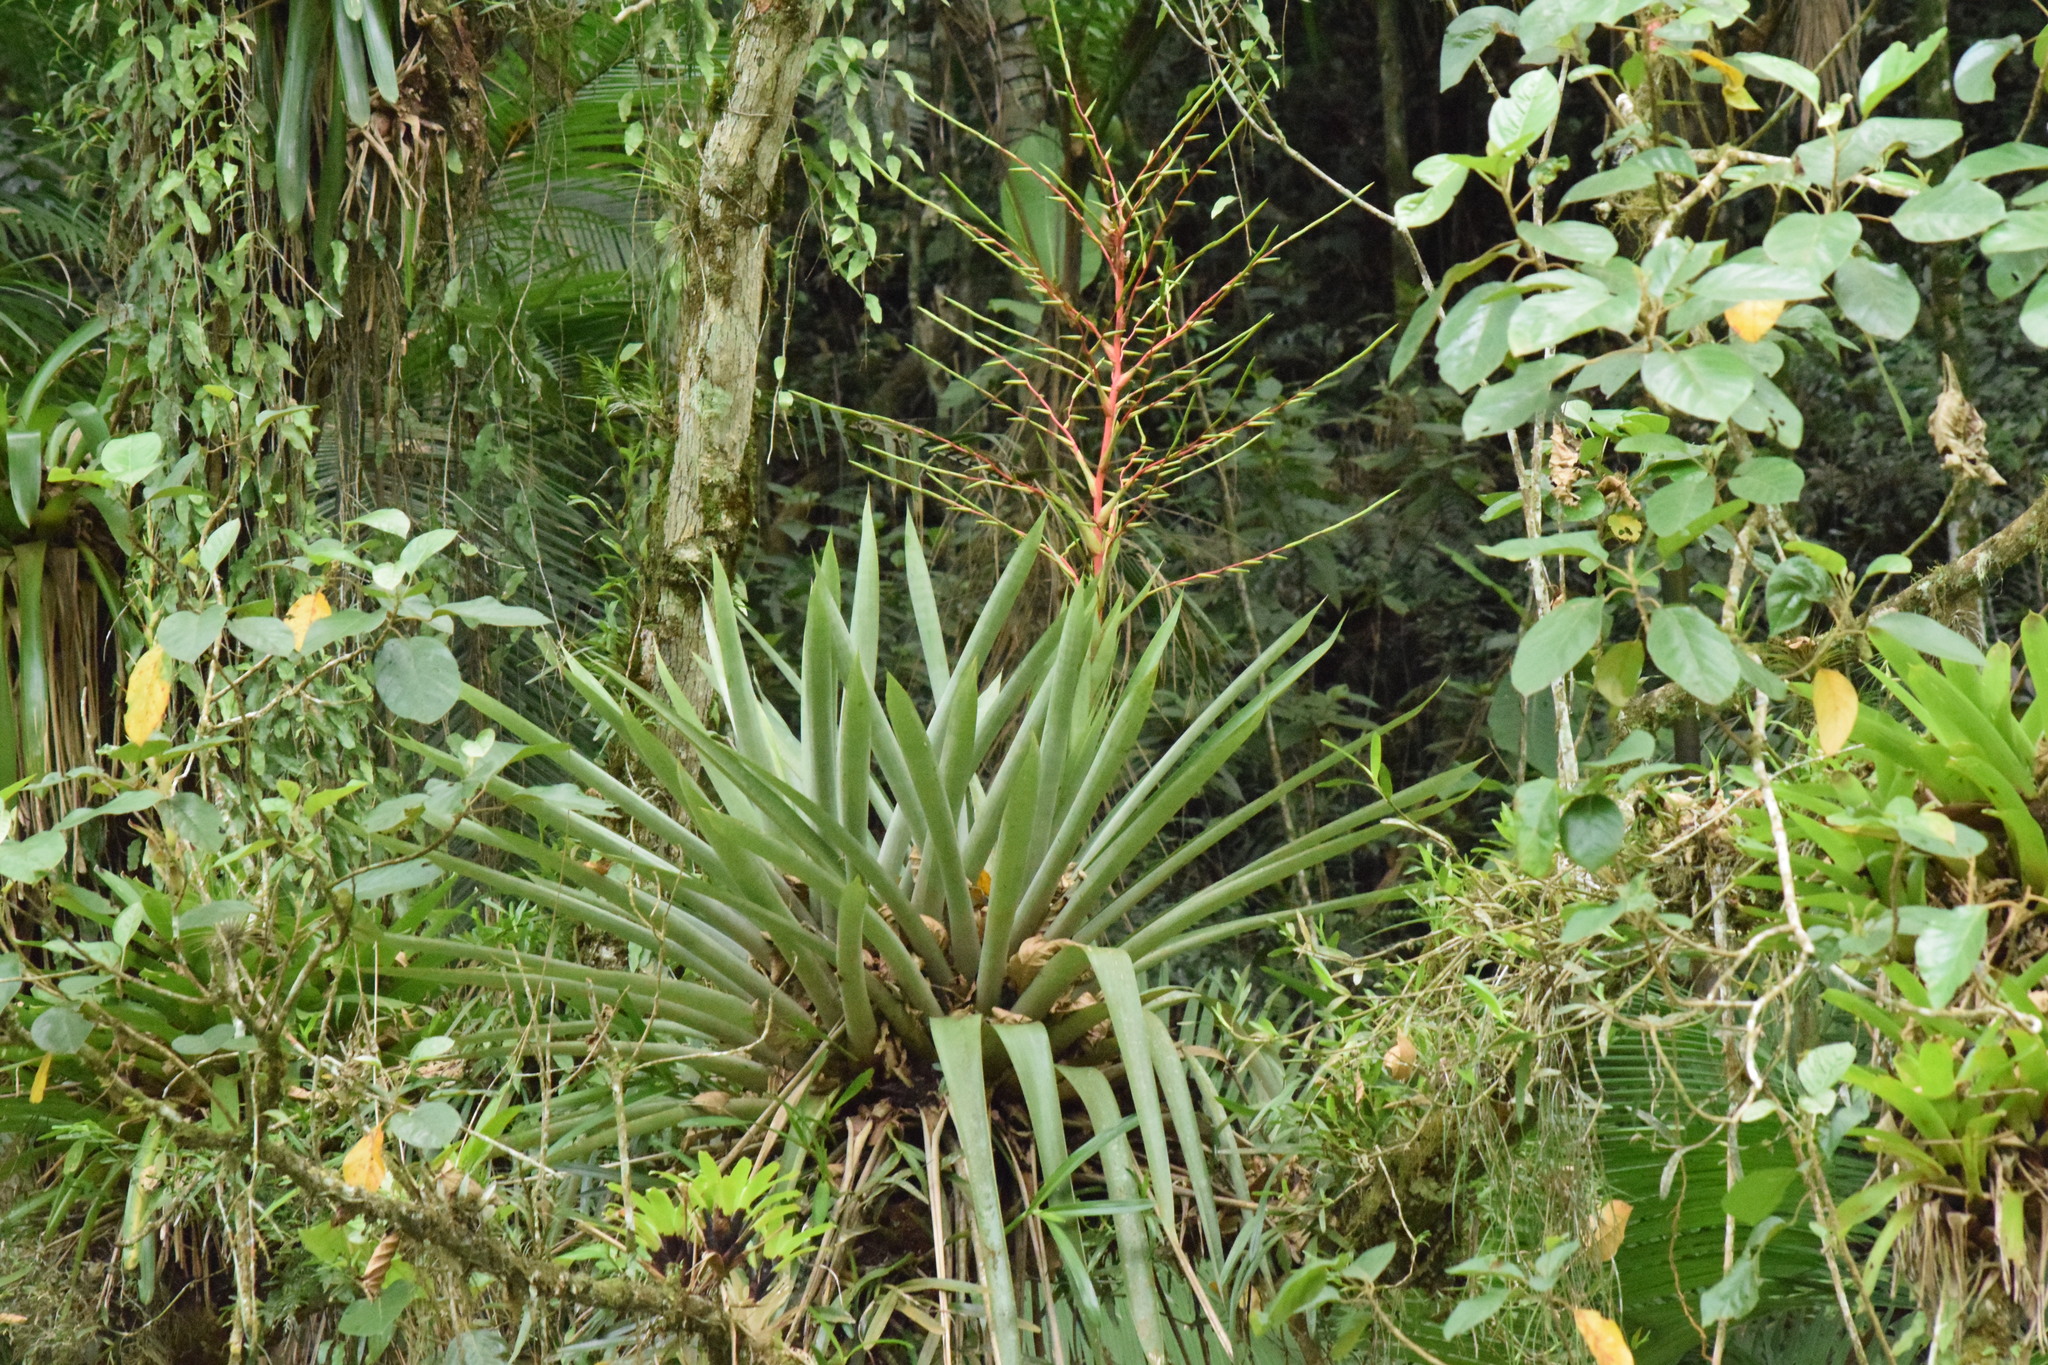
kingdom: Plantae
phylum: Tracheophyta
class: Liliopsida
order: Poales
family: Bromeliaceae
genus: Vriesea
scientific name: Vriesea paratiensis
